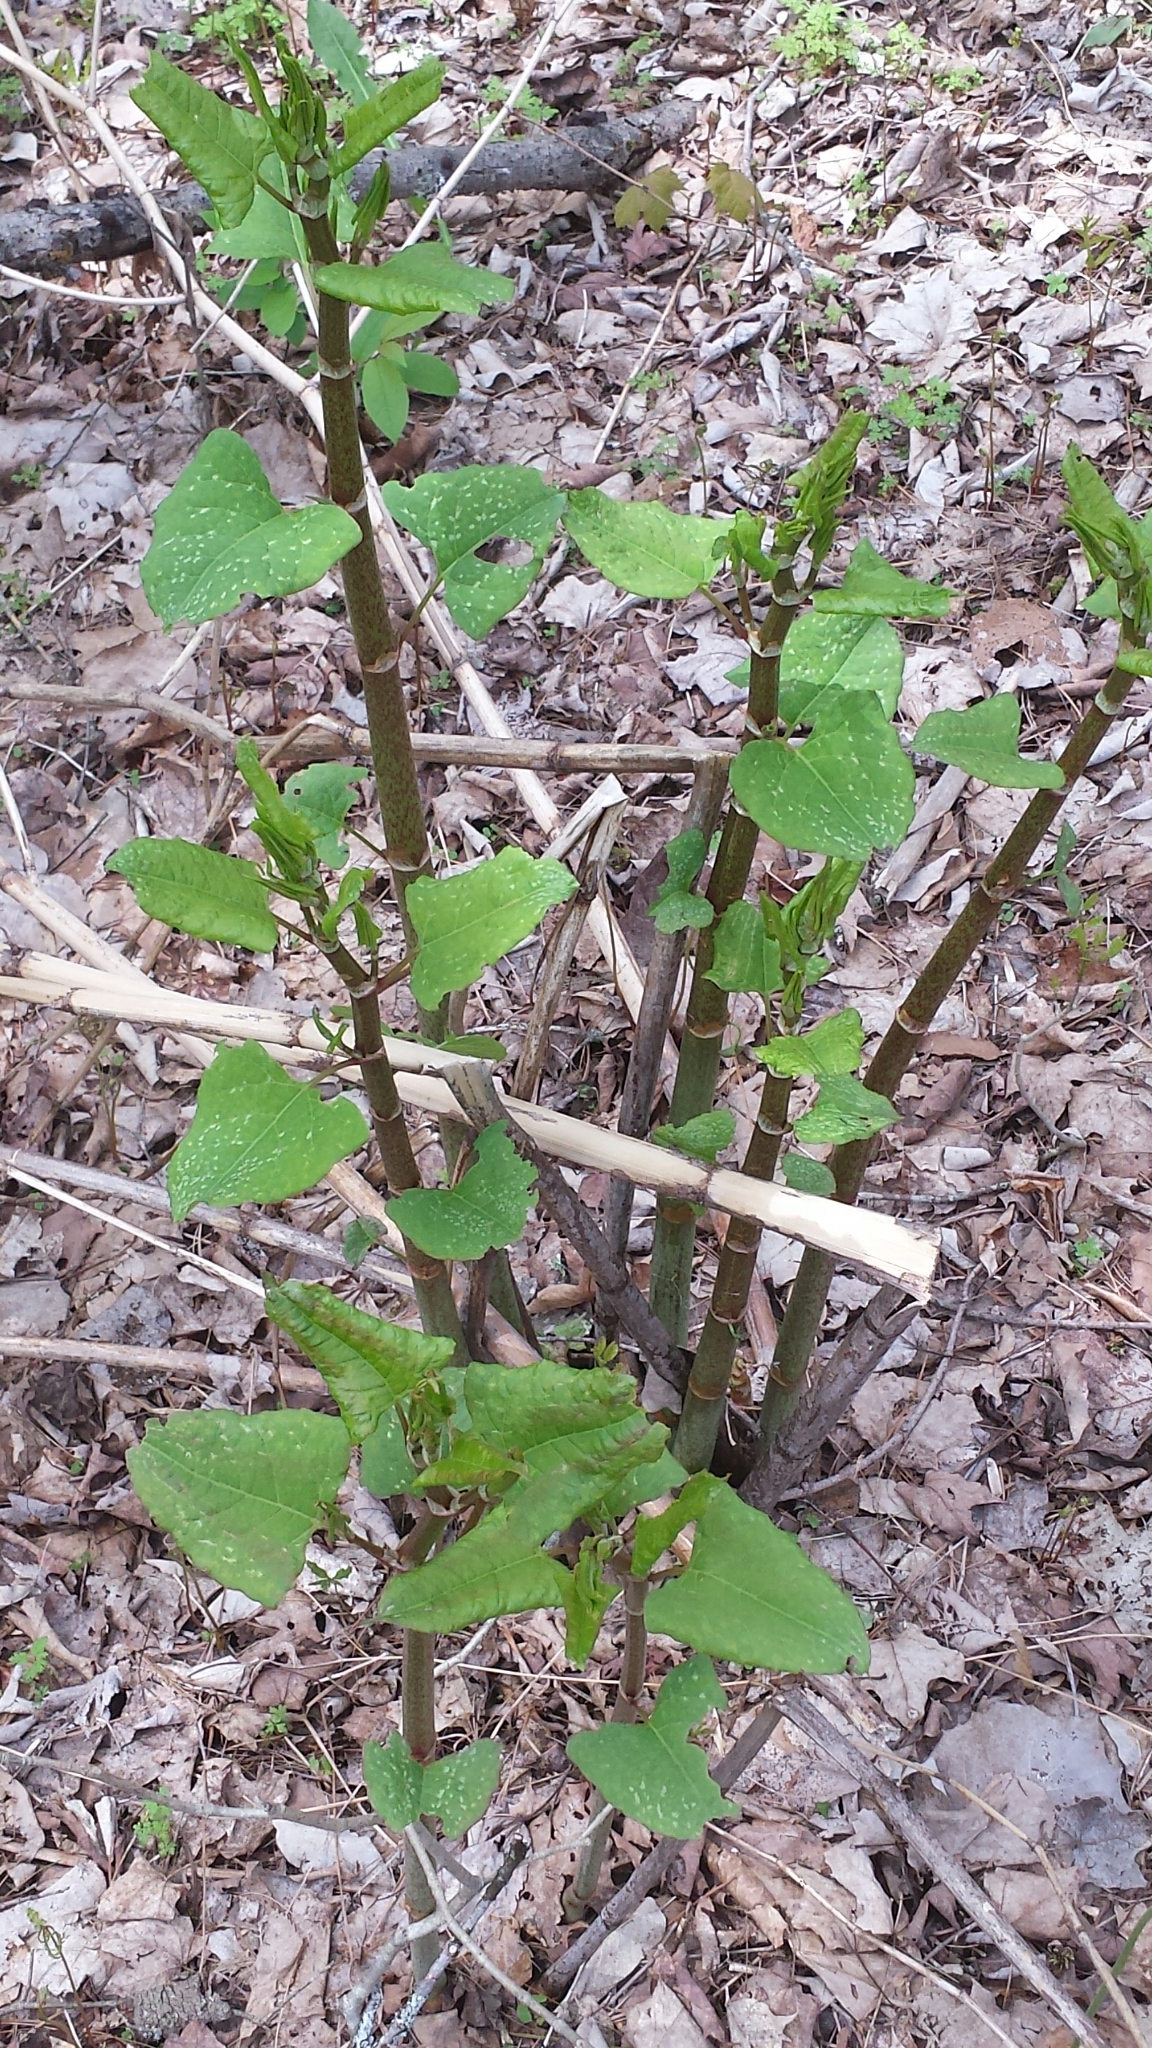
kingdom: Plantae
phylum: Tracheophyta
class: Magnoliopsida
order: Caryophyllales
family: Polygonaceae
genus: Reynoutria
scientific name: Reynoutria japonica
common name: Japanese knotweed
